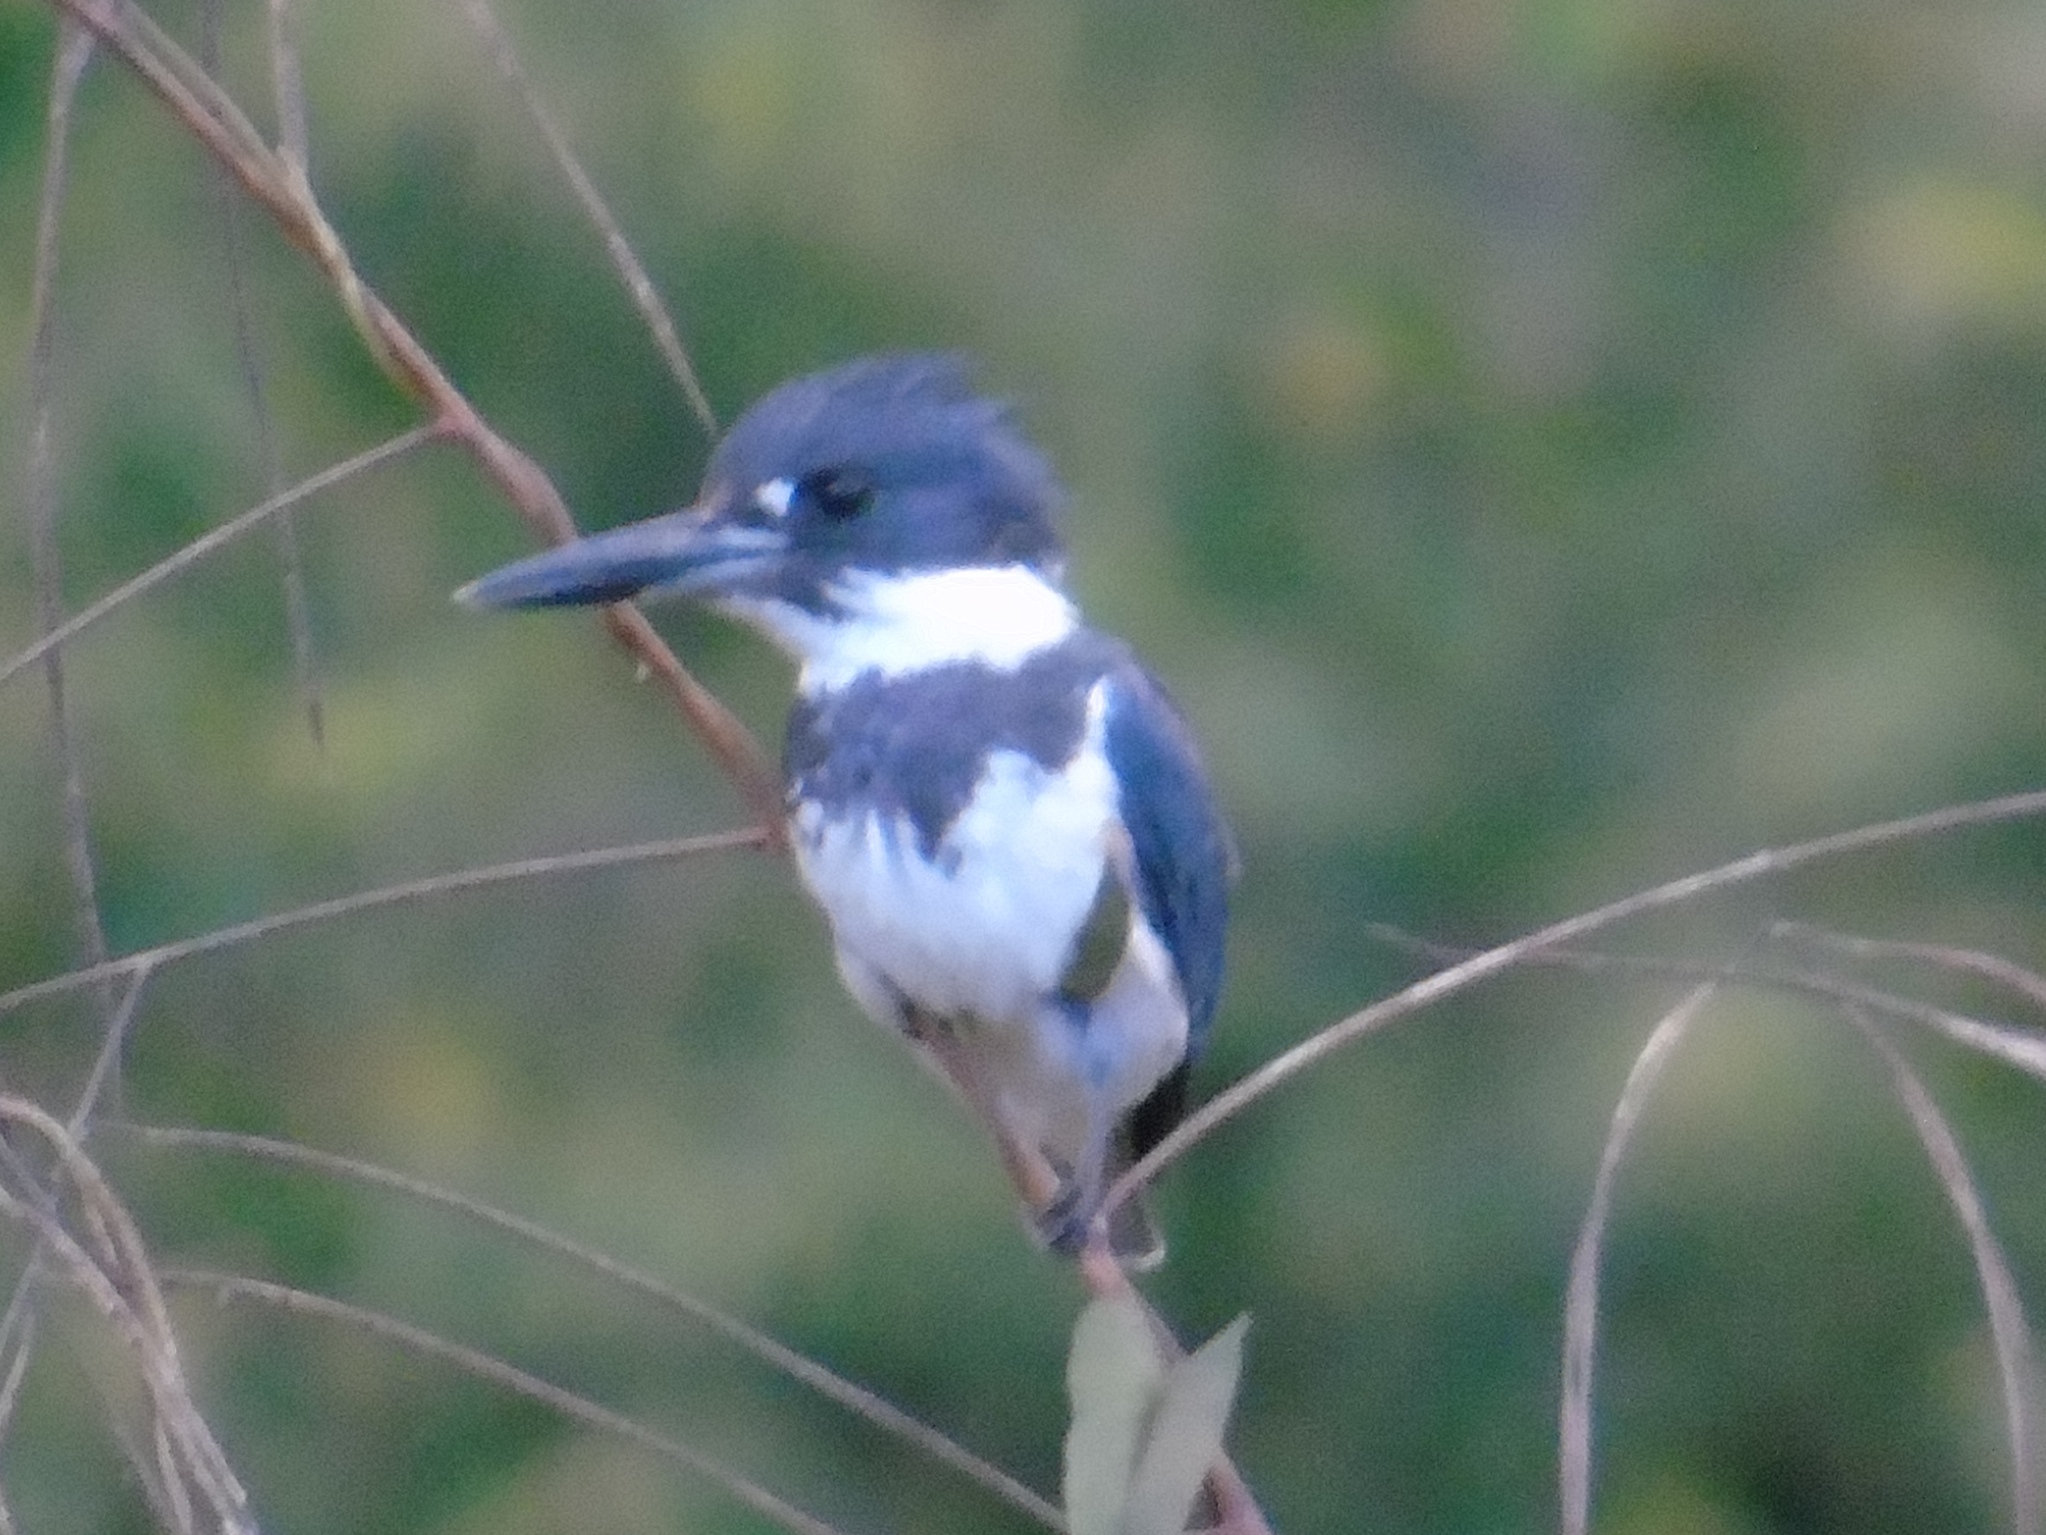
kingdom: Animalia
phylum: Chordata
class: Aves
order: Coraciiformes
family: Alcedinidae
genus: Megaceryle
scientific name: Megaceryle alcyon
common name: Belted kingfisher
